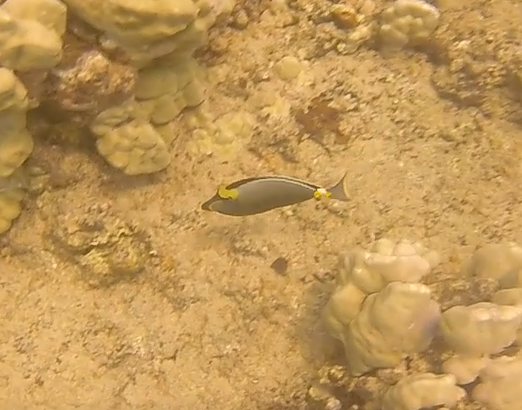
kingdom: Animalia
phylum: Chordata
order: Perciformes
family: Acanthuridae
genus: Naso
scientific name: Naso lituratus
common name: Orangespine unicornfish
